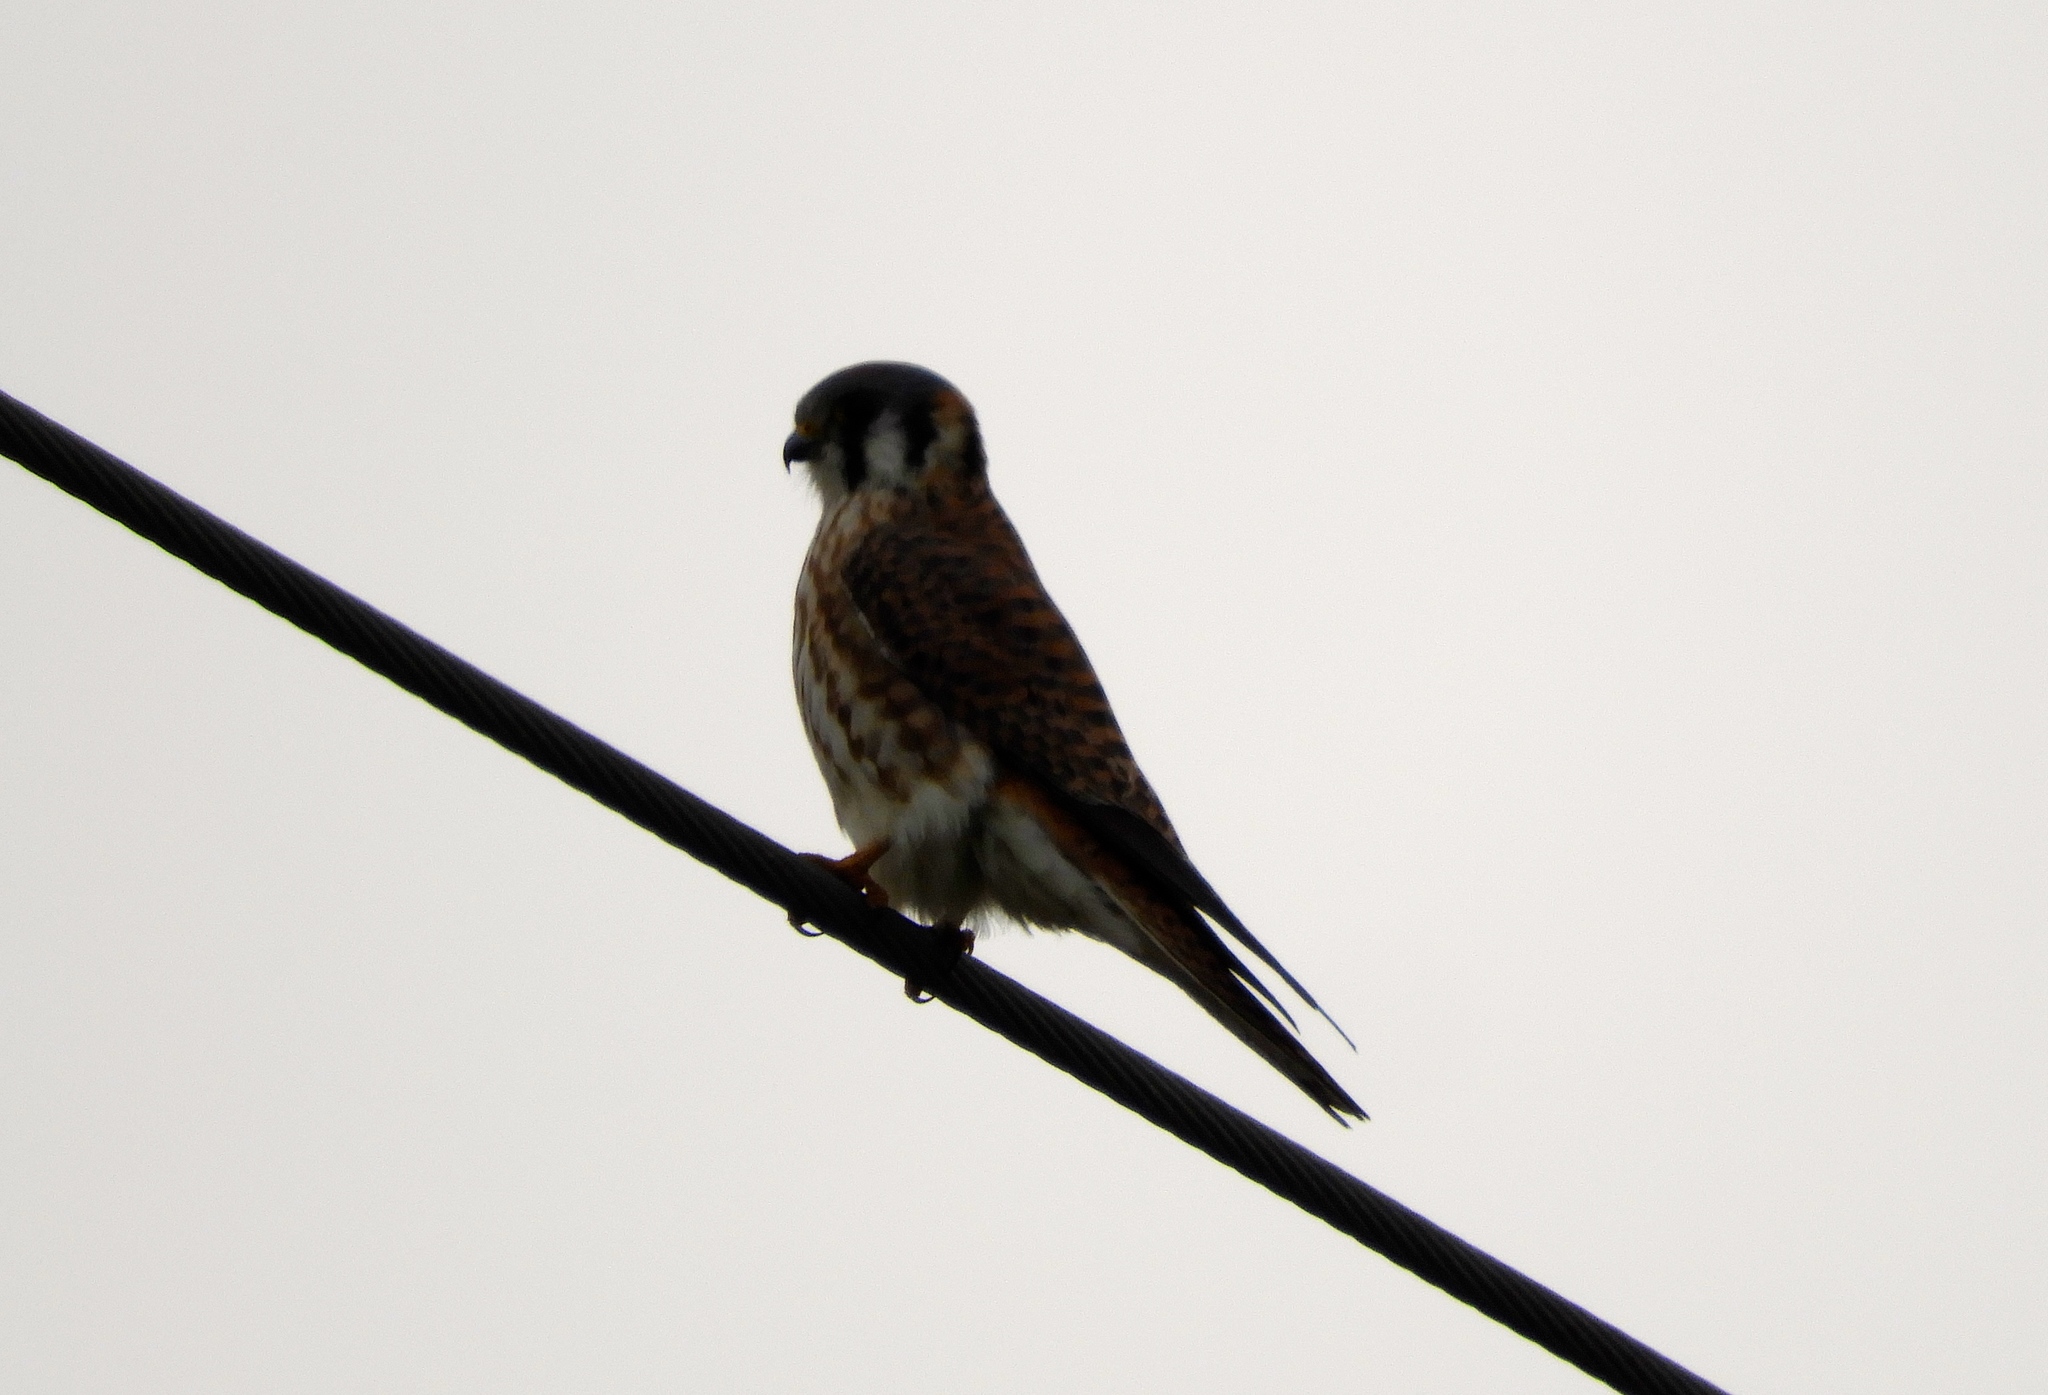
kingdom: Animalia
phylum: Chordata
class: Aves
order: Falconiformes
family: Falconidae
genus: Falco
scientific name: Falco sparverius
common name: American kestrel
